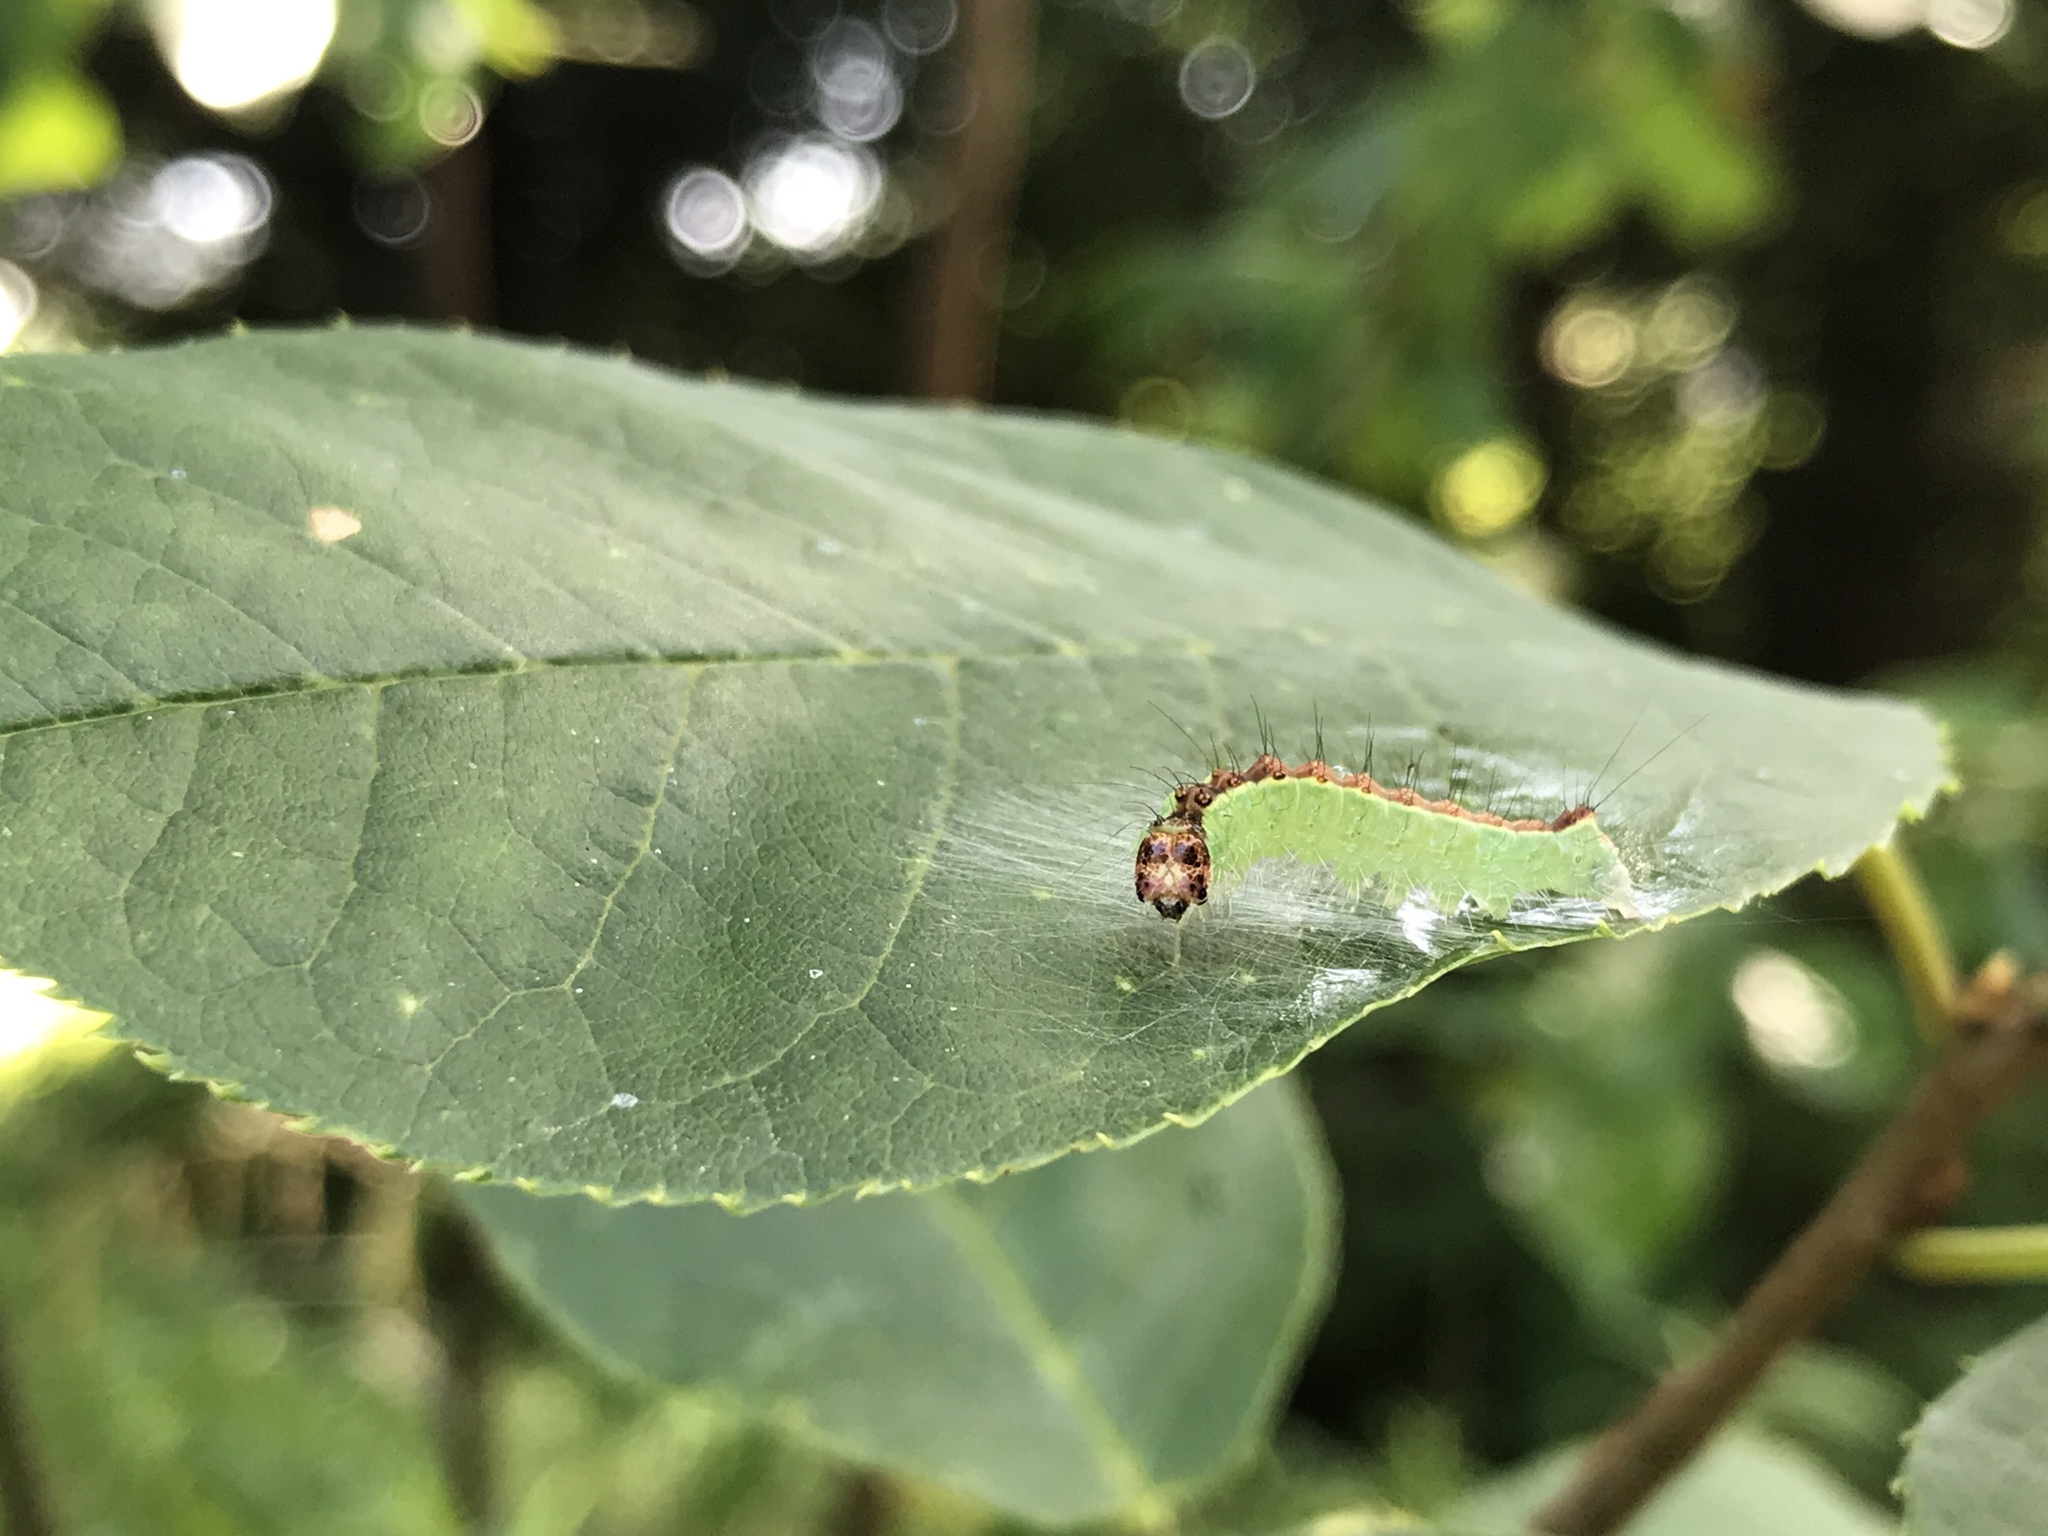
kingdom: Animalia
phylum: Arthropoda
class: Insecta
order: Lepidoptera
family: Noctuidae
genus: Acronicta
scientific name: Acronicta superans
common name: Splendid dagger
